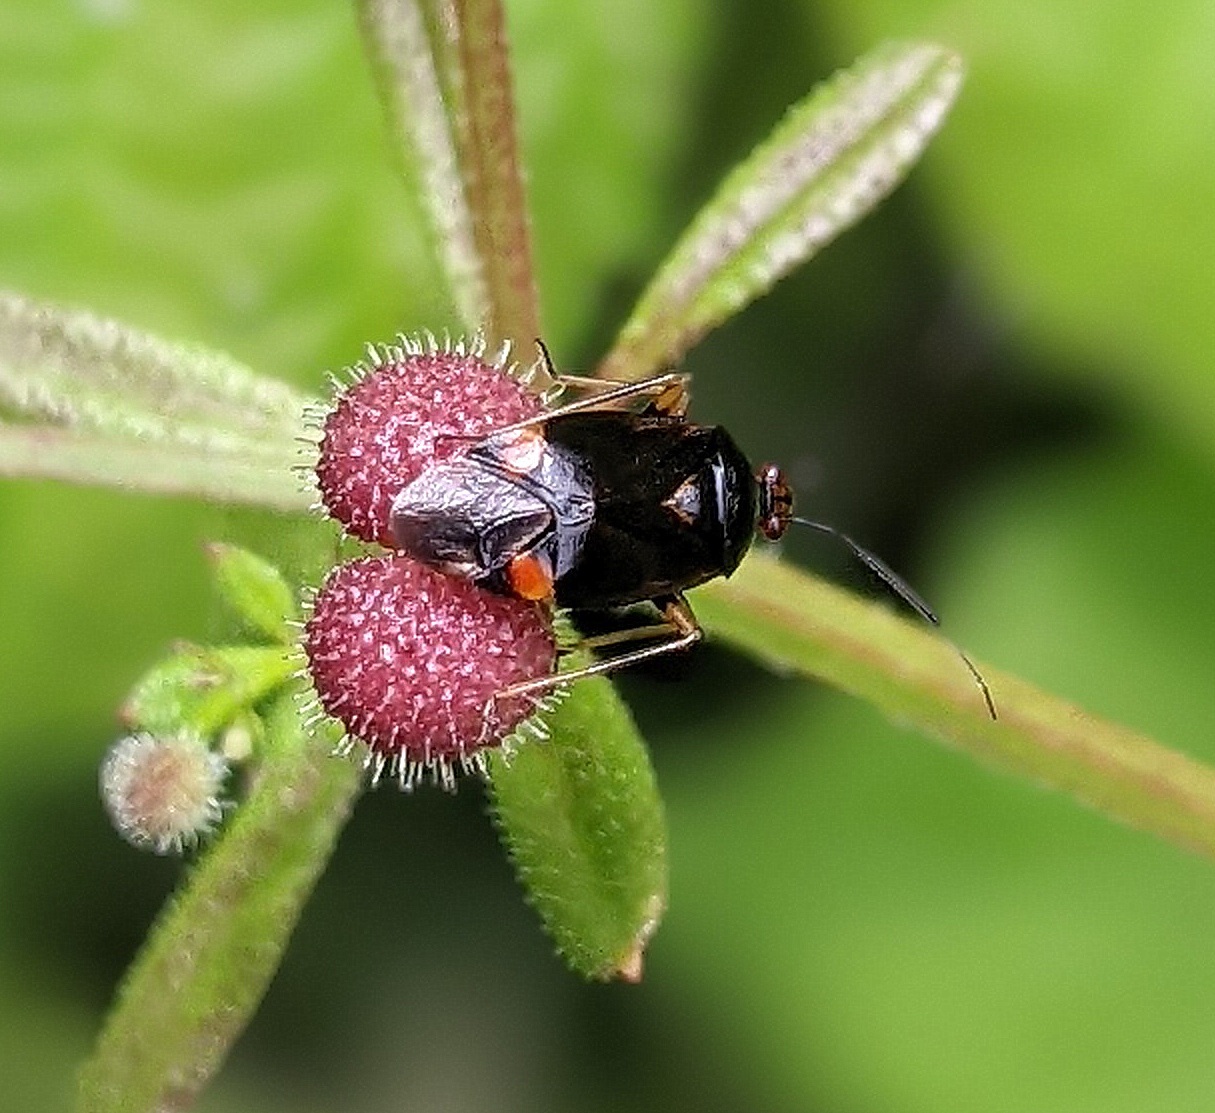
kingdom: Animalia
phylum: Arthropoda
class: Insecta
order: Hemiptera
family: Miridae
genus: Deraeocoris
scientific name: Deraeocoris ruber
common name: Plant bug
